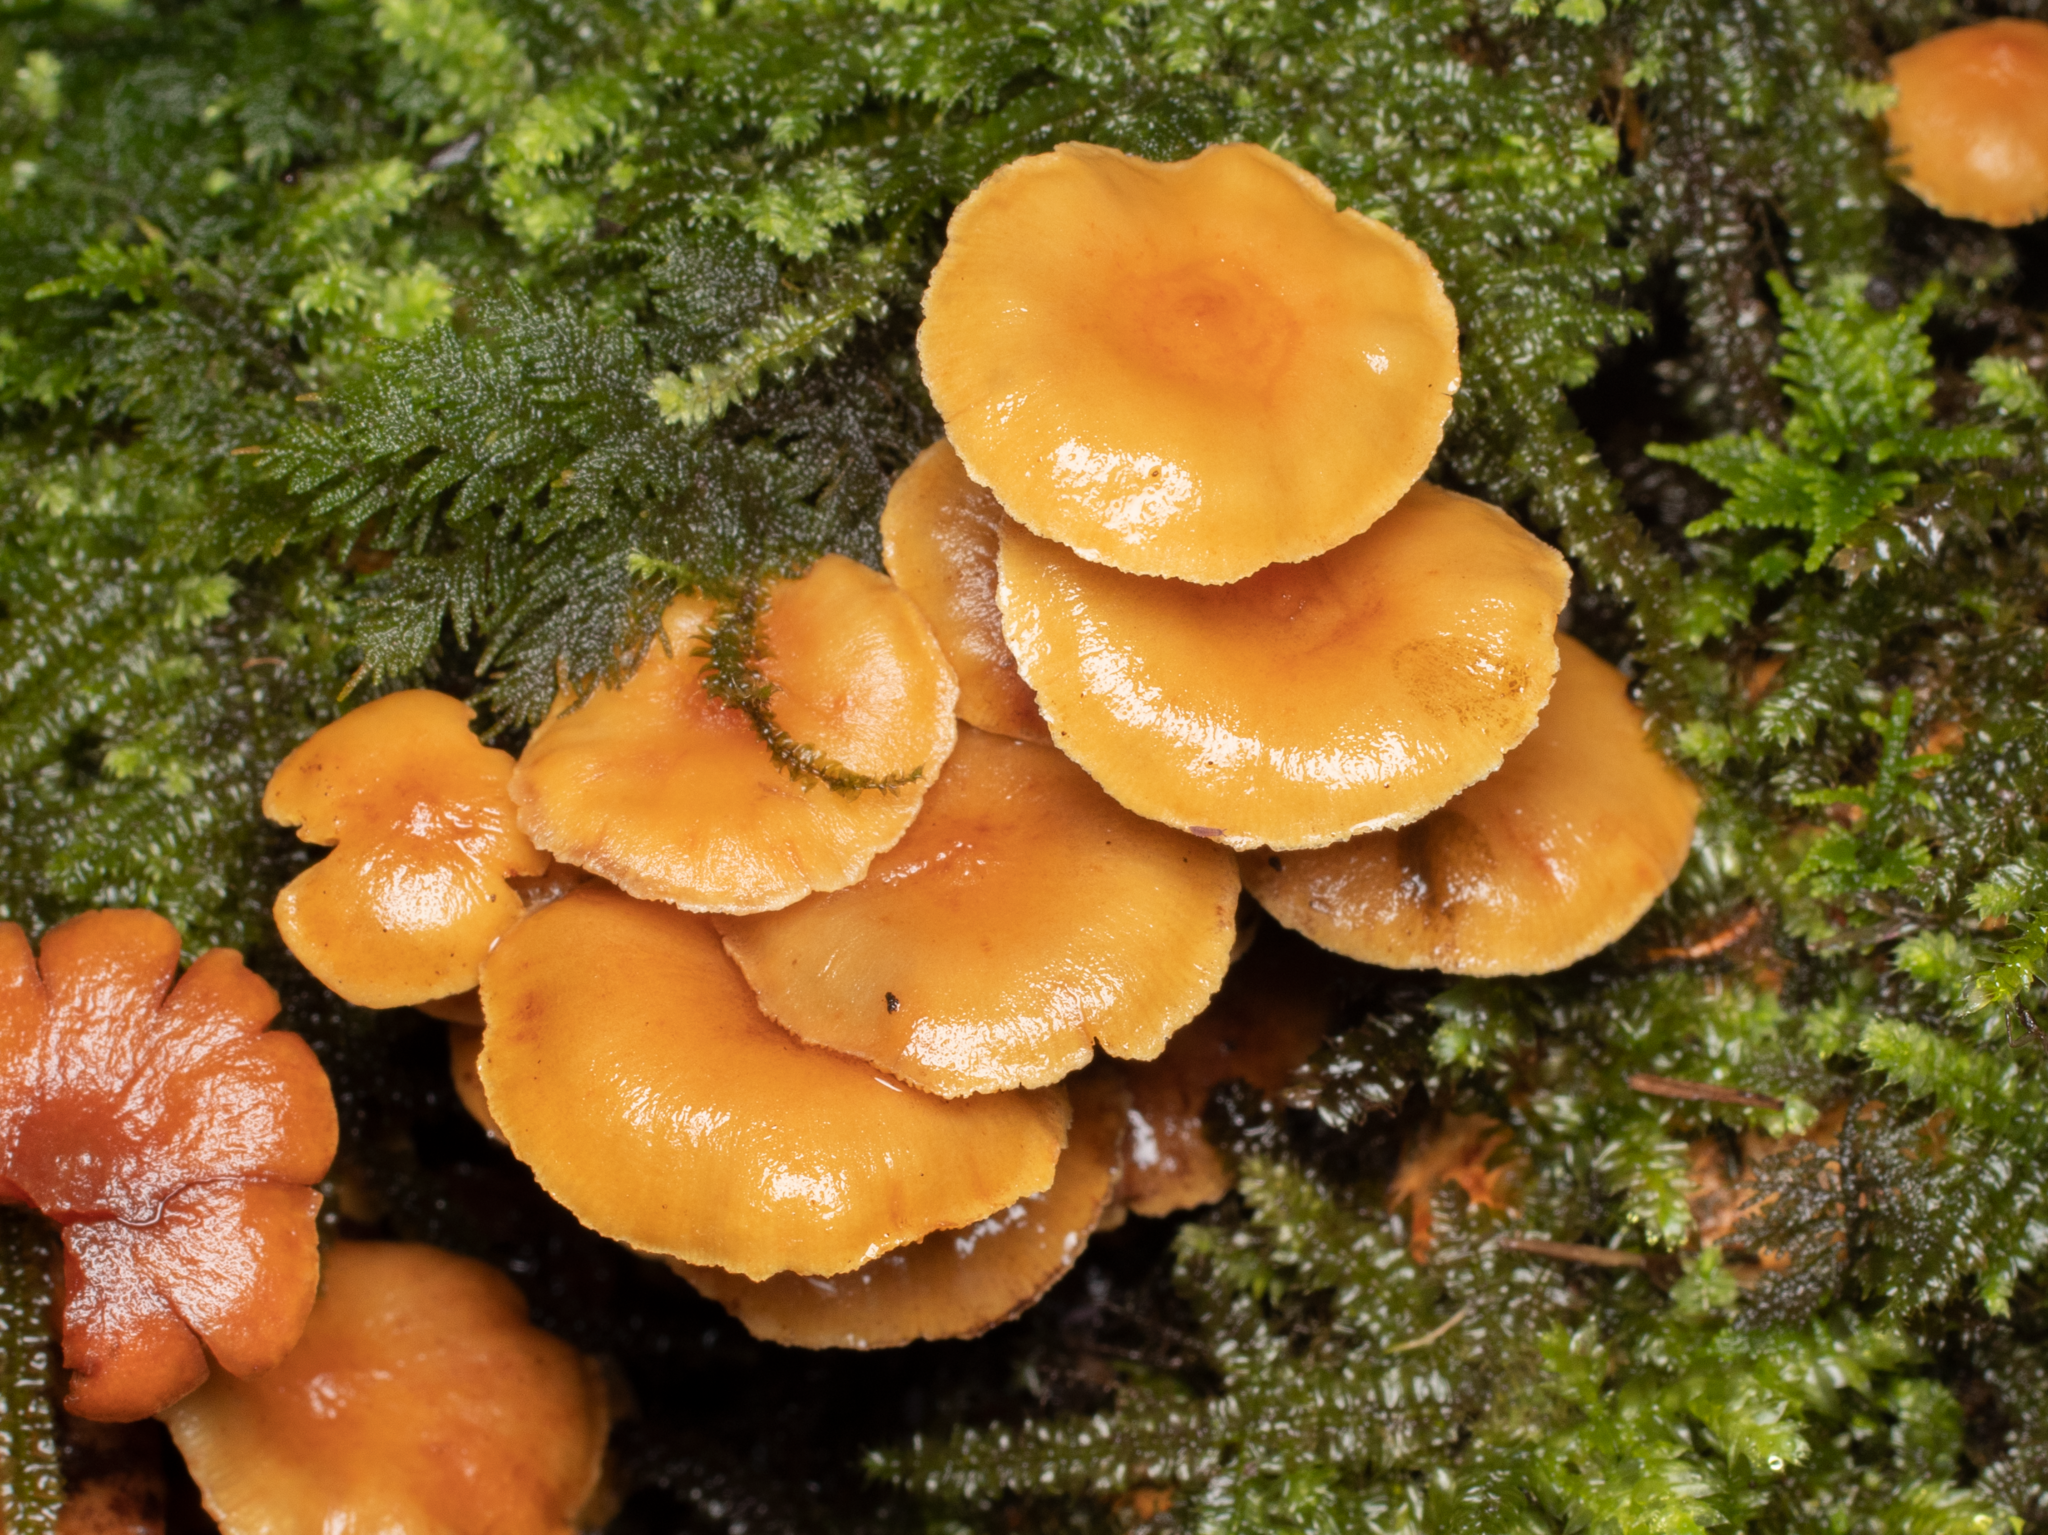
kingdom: Fungi
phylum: Basidiomycota
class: Agaricomycetes
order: Agaricales
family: Strophariaceae
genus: Hypholoma
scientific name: Hypholoma acutum
